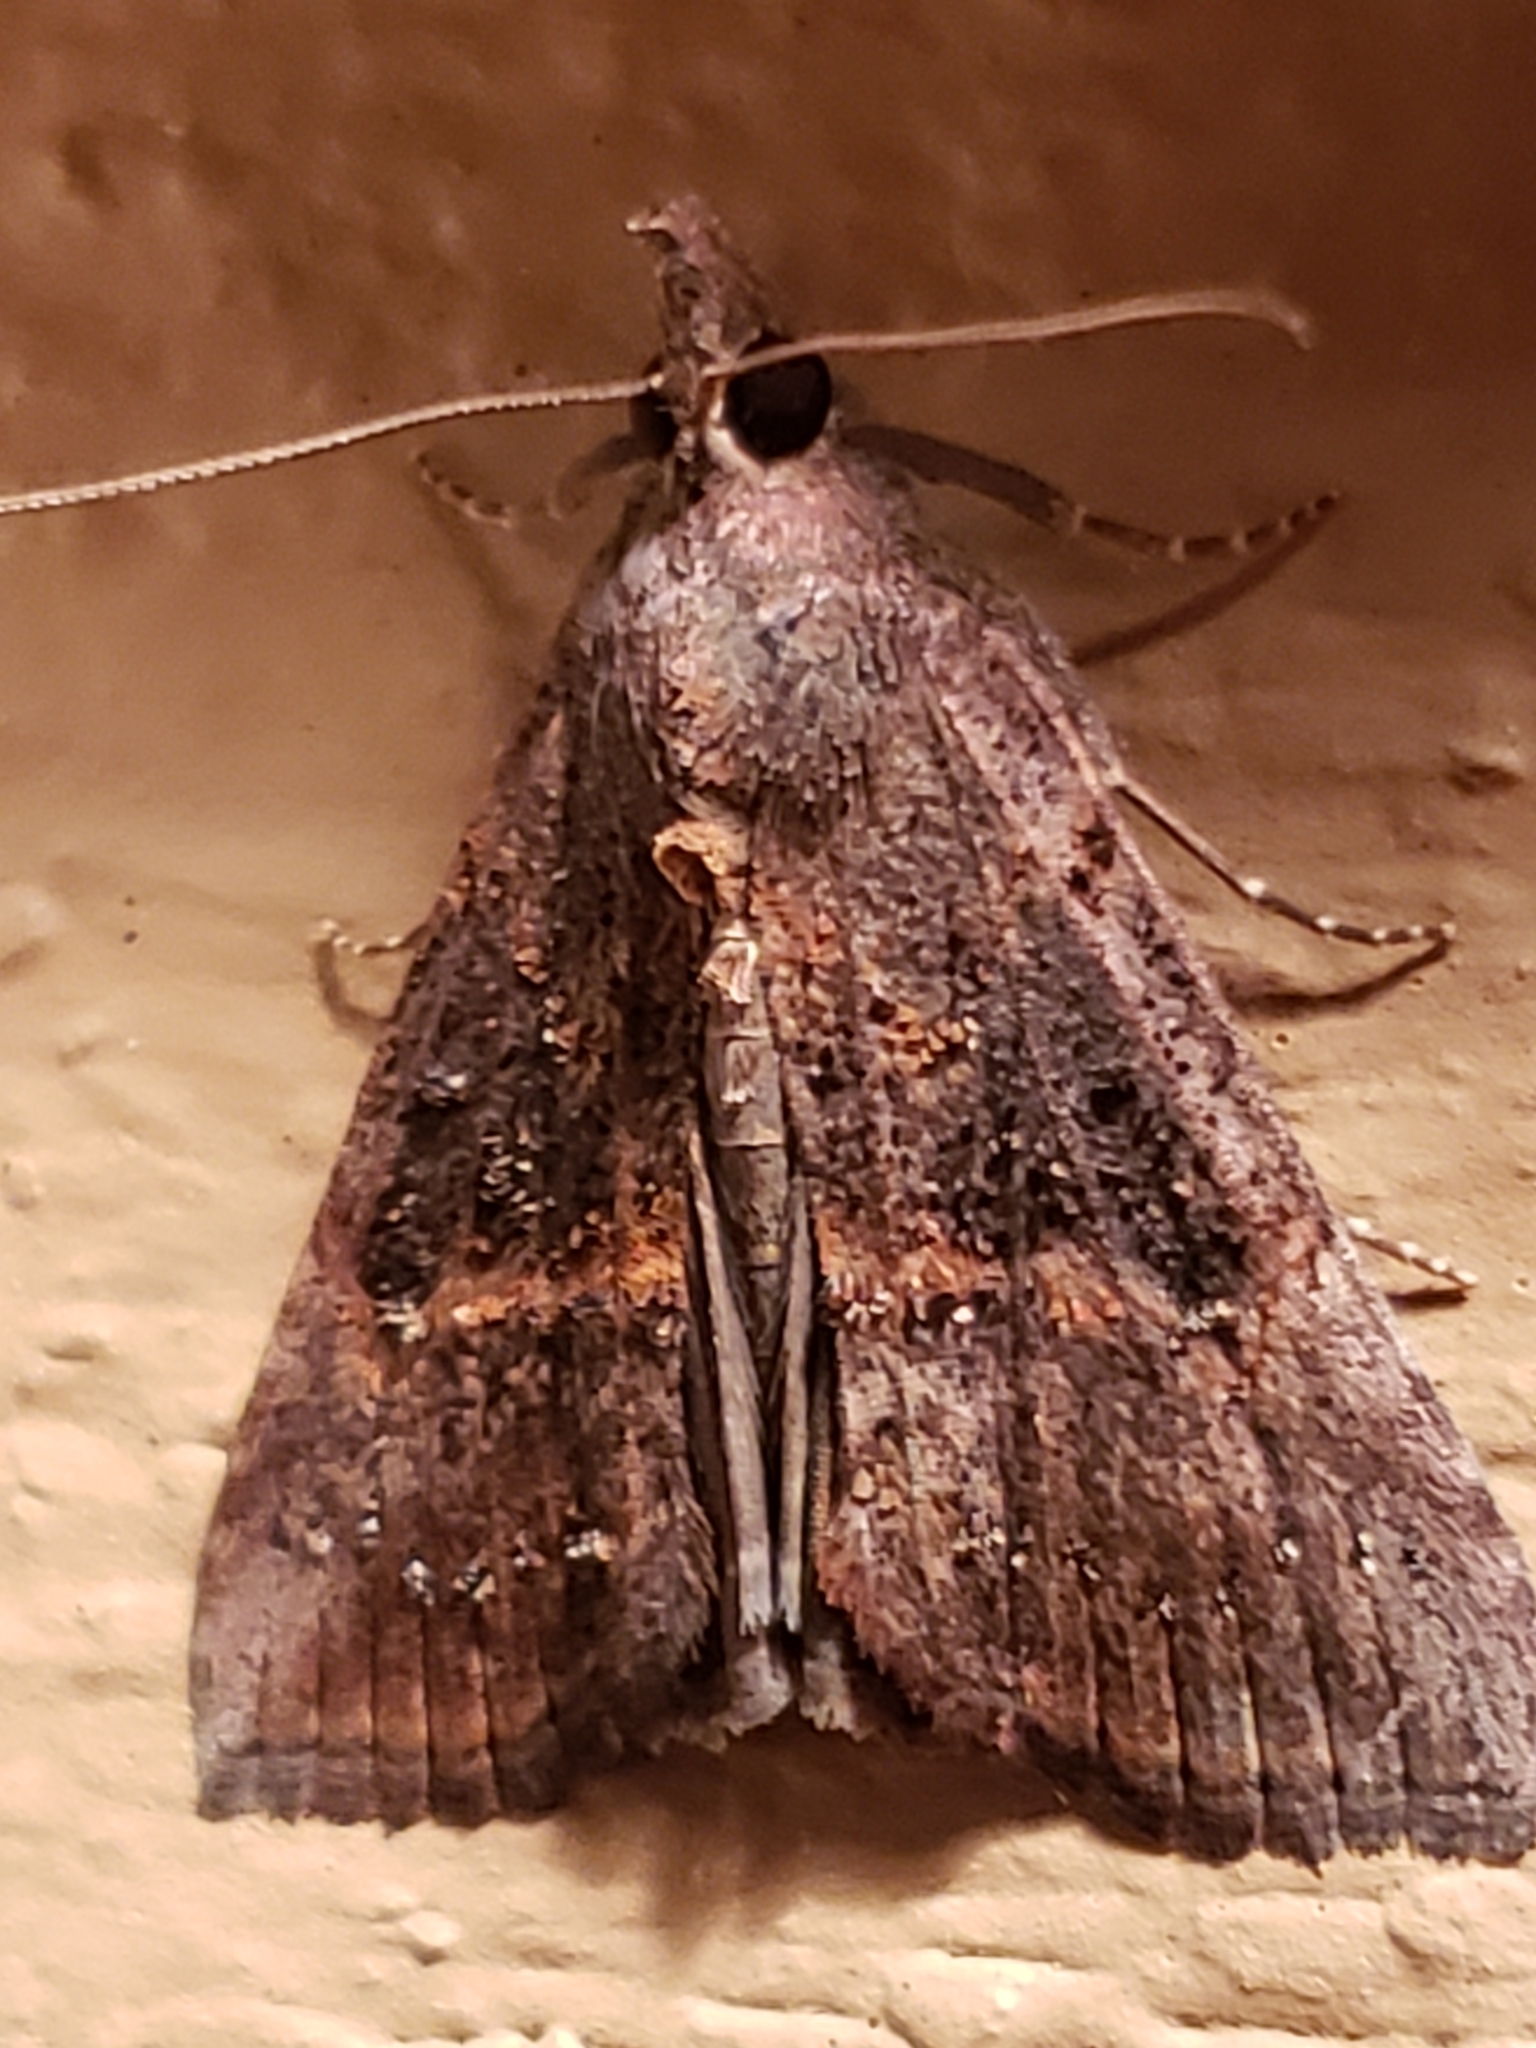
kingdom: Animalia
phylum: Arthropoda
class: Insecta
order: Lepidoptera
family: Erebidae
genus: Hypena
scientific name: Hypena scabra
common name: Green cloverworm
